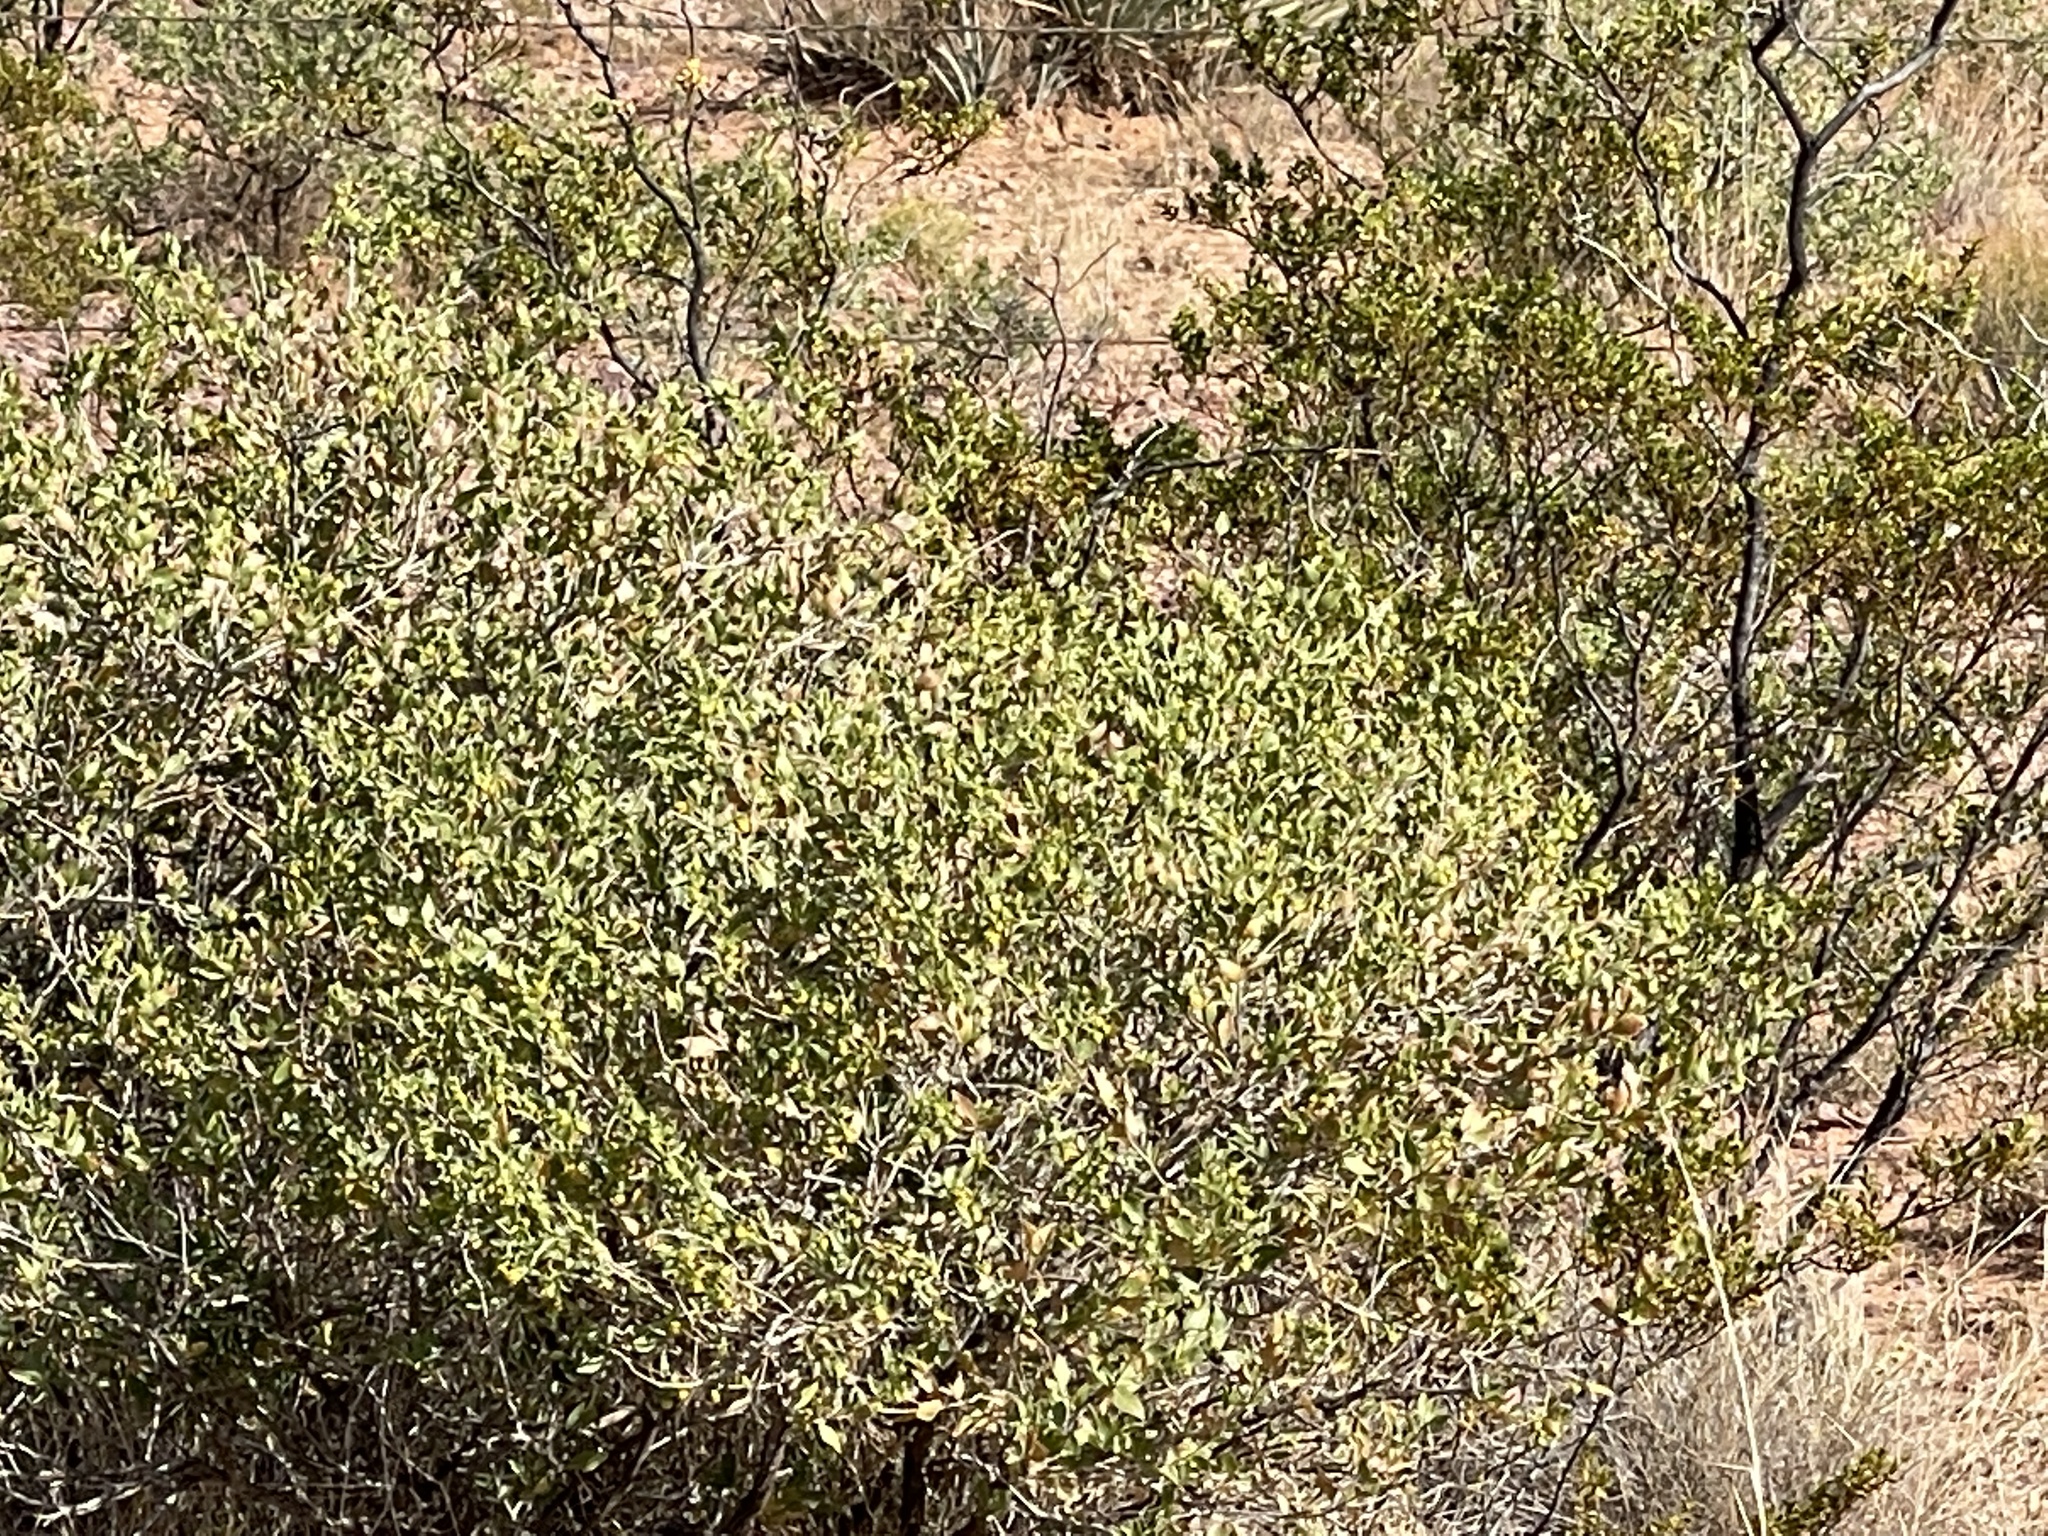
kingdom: Plantae
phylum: Tracheophyta
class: Magnoliopsida
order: Asterales
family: Asteraceae
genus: Flourensia
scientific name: Flourensia cernua
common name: Varnishbush
